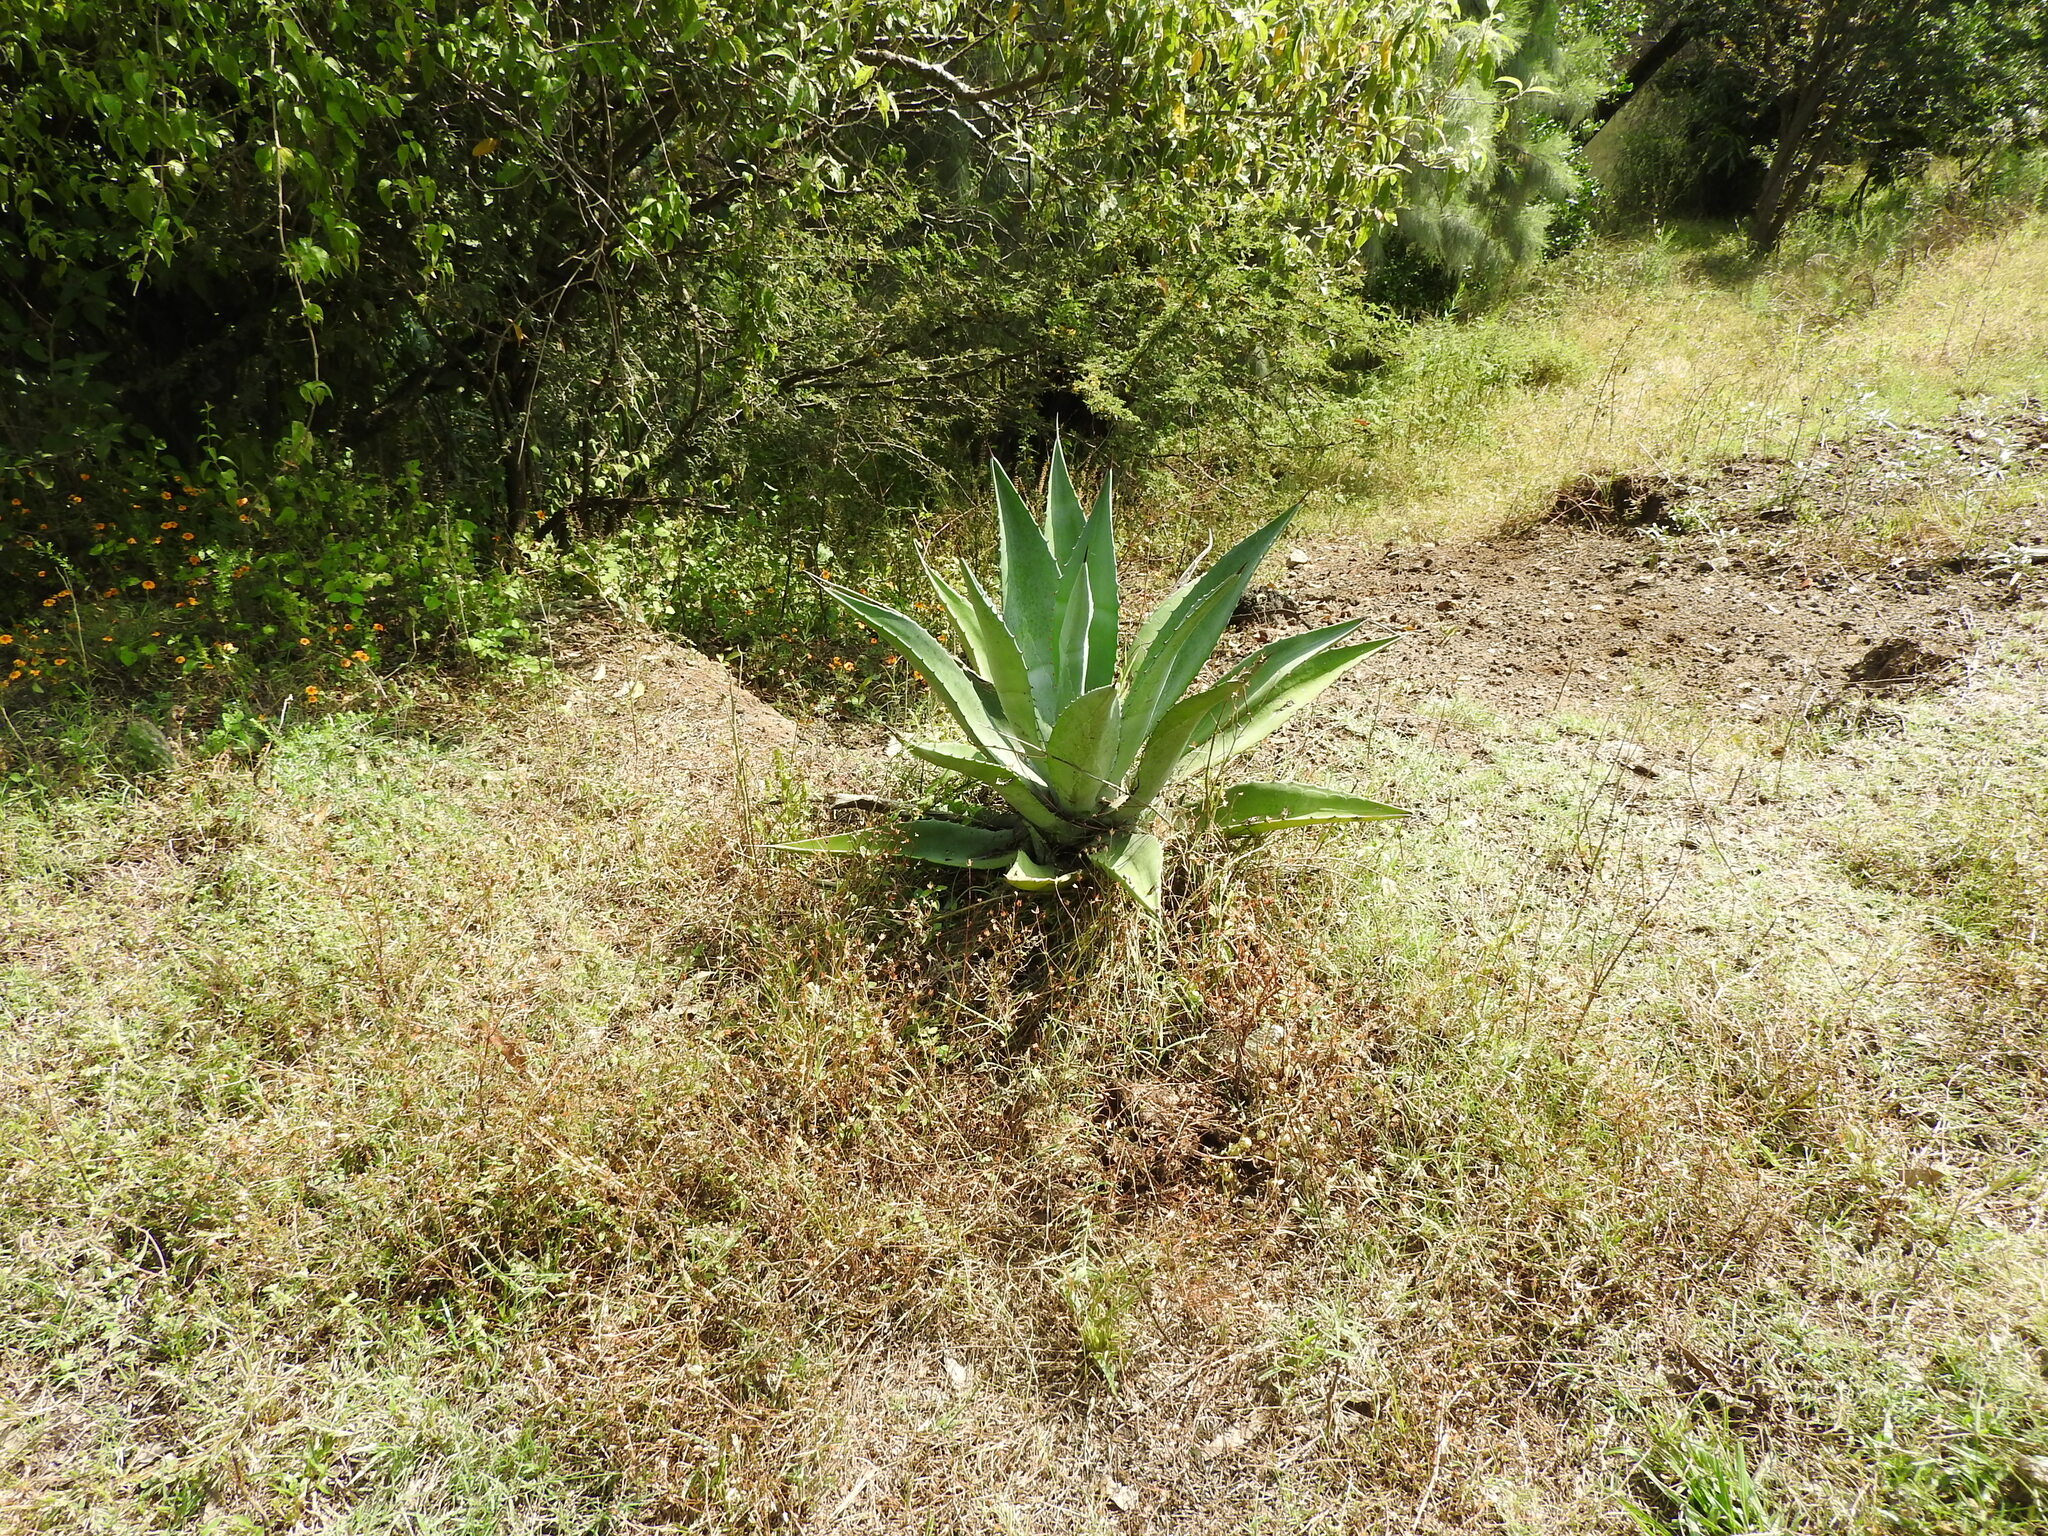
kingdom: Plantae
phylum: Tracheophyta
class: Liliopsida
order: Asparagales
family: Asparagaceae
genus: Agave
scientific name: Agave salmiana
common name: Pulque agave
